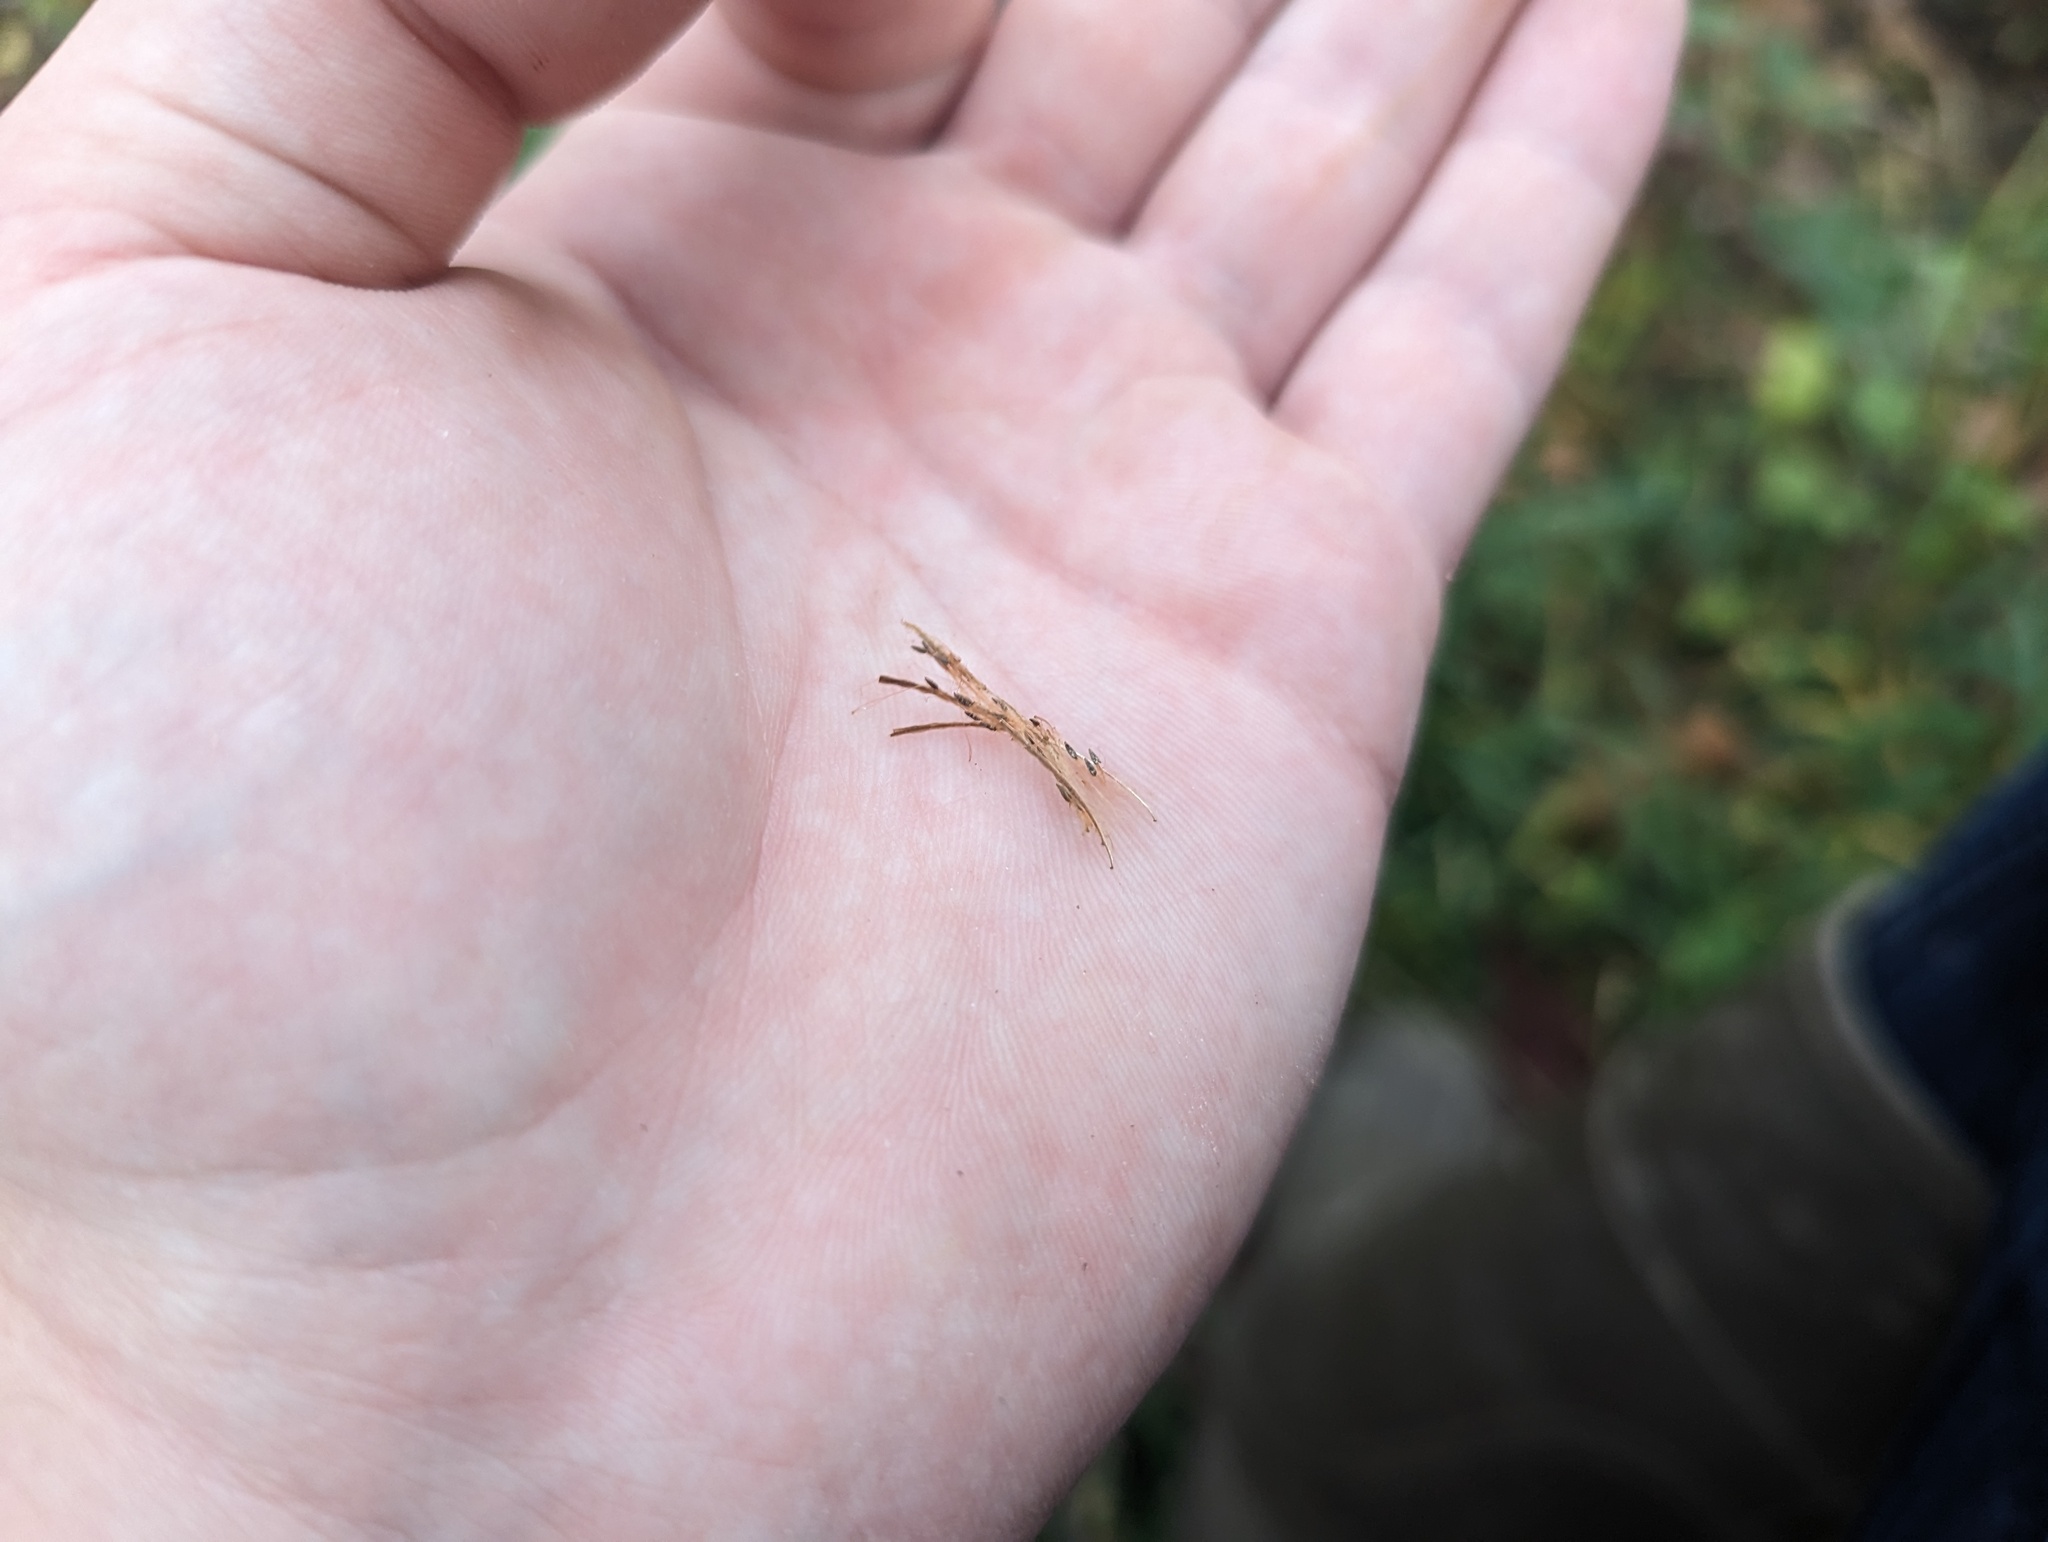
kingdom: Plantae
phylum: Tracheophyta
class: Magnoliopsida
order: Myrtales
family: Onagraceae
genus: Epilobium
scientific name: Epilobium coloratum
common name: Bronze willowherb
